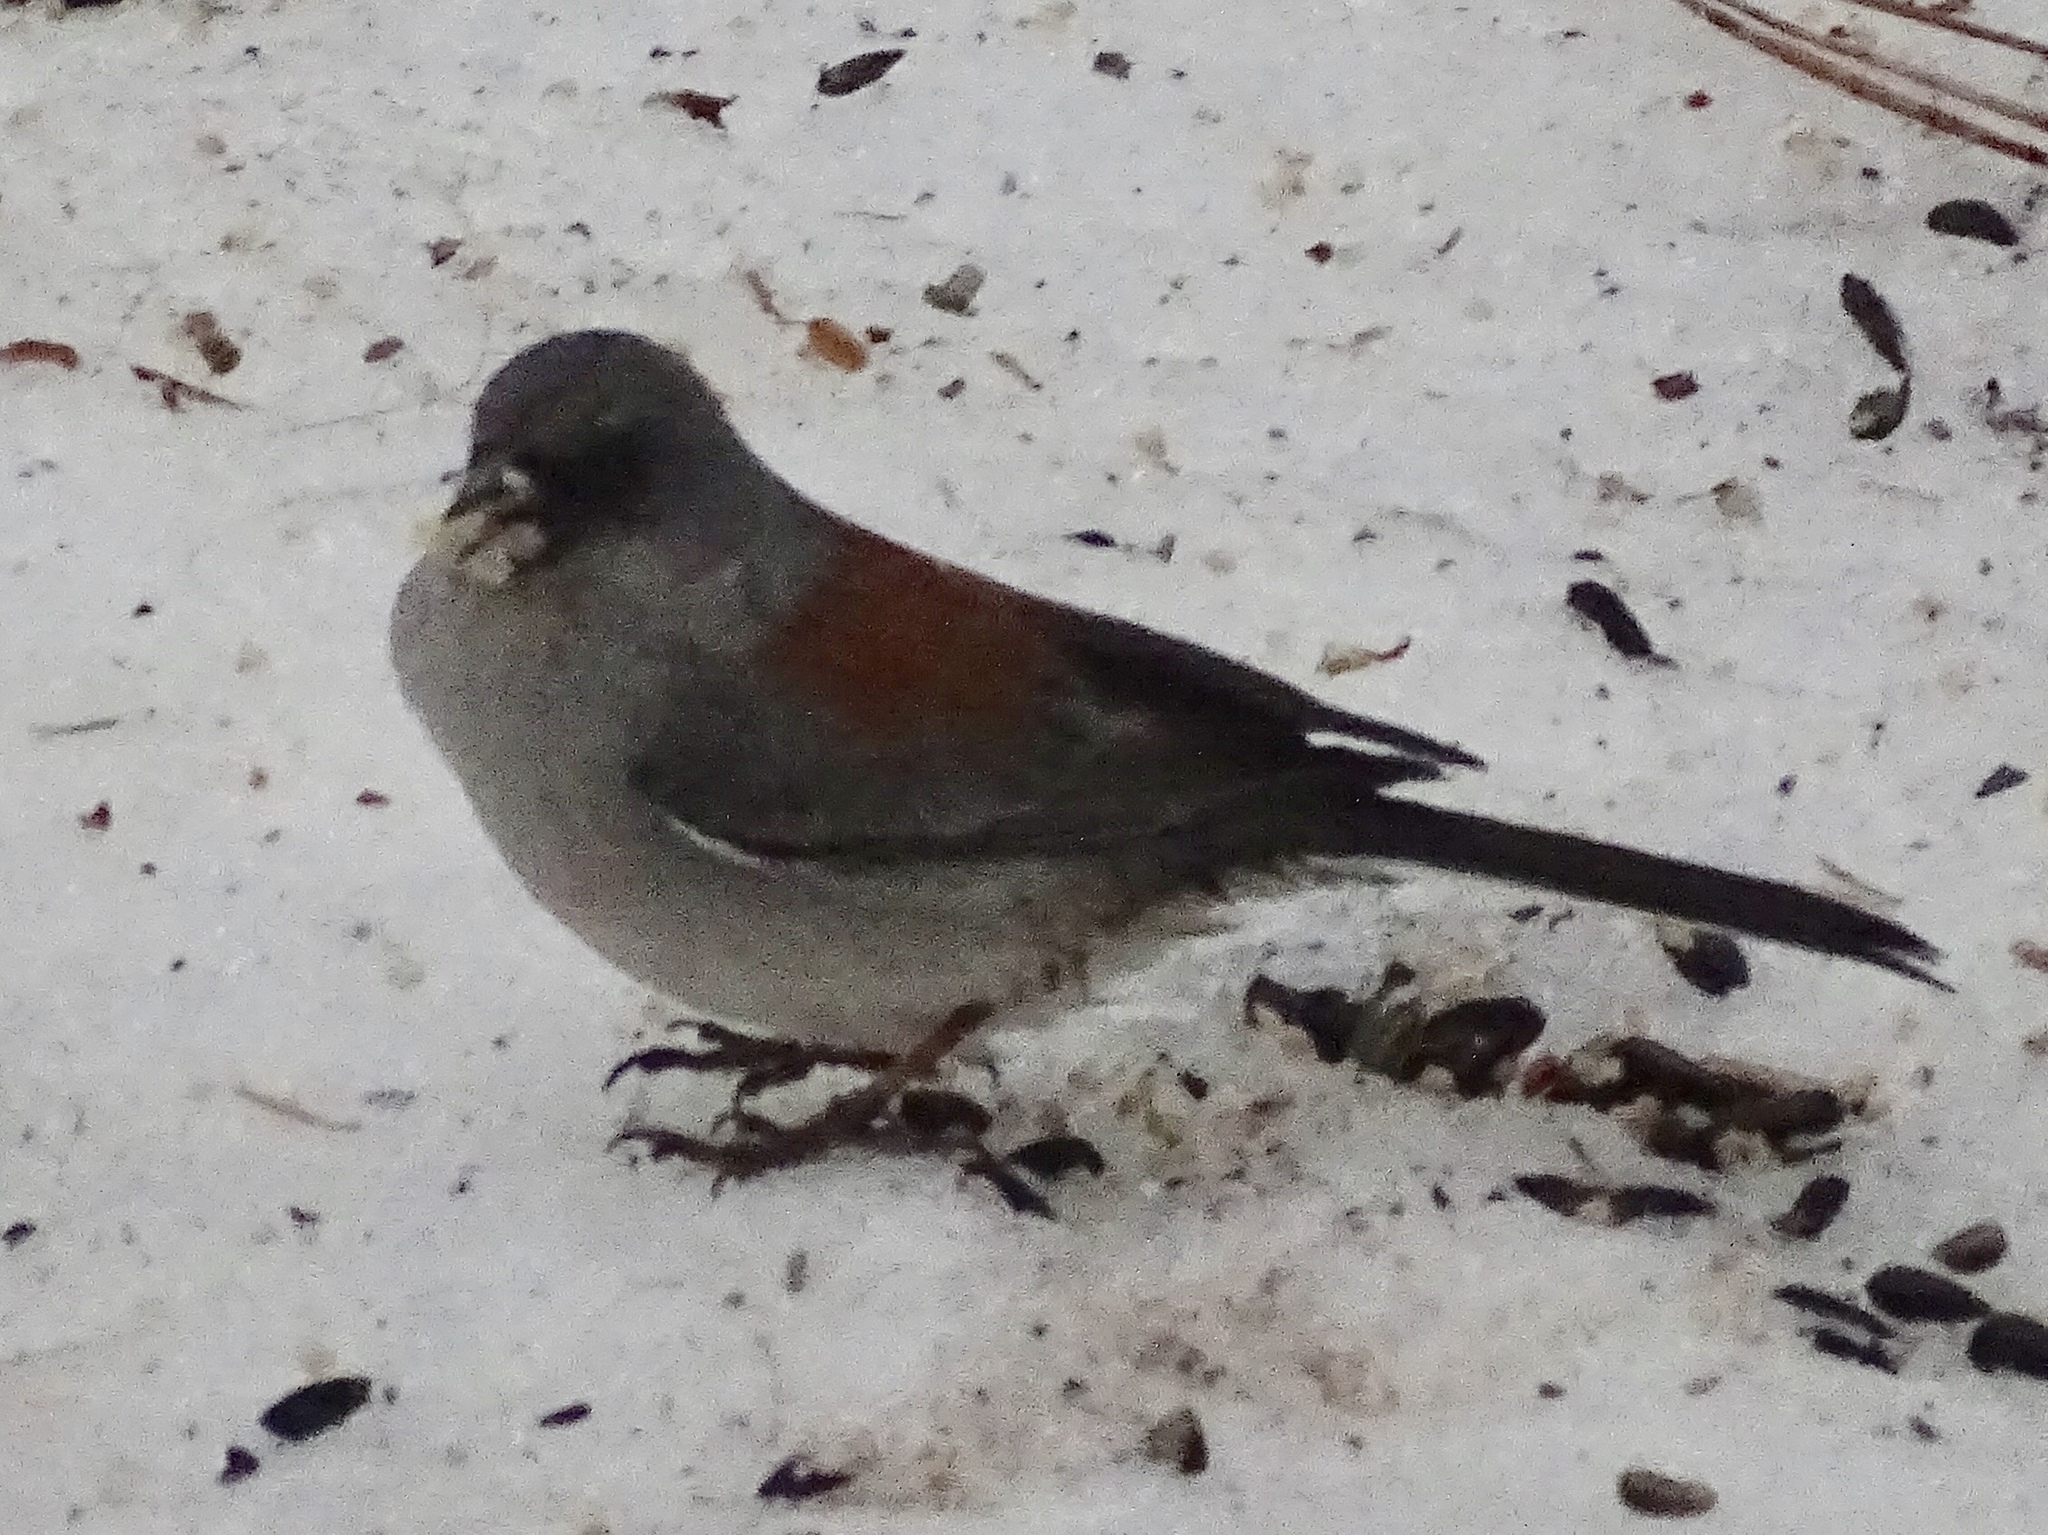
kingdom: Animalia
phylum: Chordata
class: Aves
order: Passeriformes
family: Passerellidae
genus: Junco
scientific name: Junco hyemalis
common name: Dark-eyed junco
